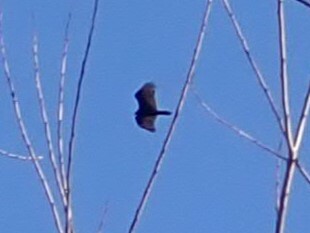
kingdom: Animalia
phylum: Chordata
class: Aves
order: Accipitriformes
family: Cathartidae
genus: Cathartes
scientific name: Cathartes aura
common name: Turkey vulture
